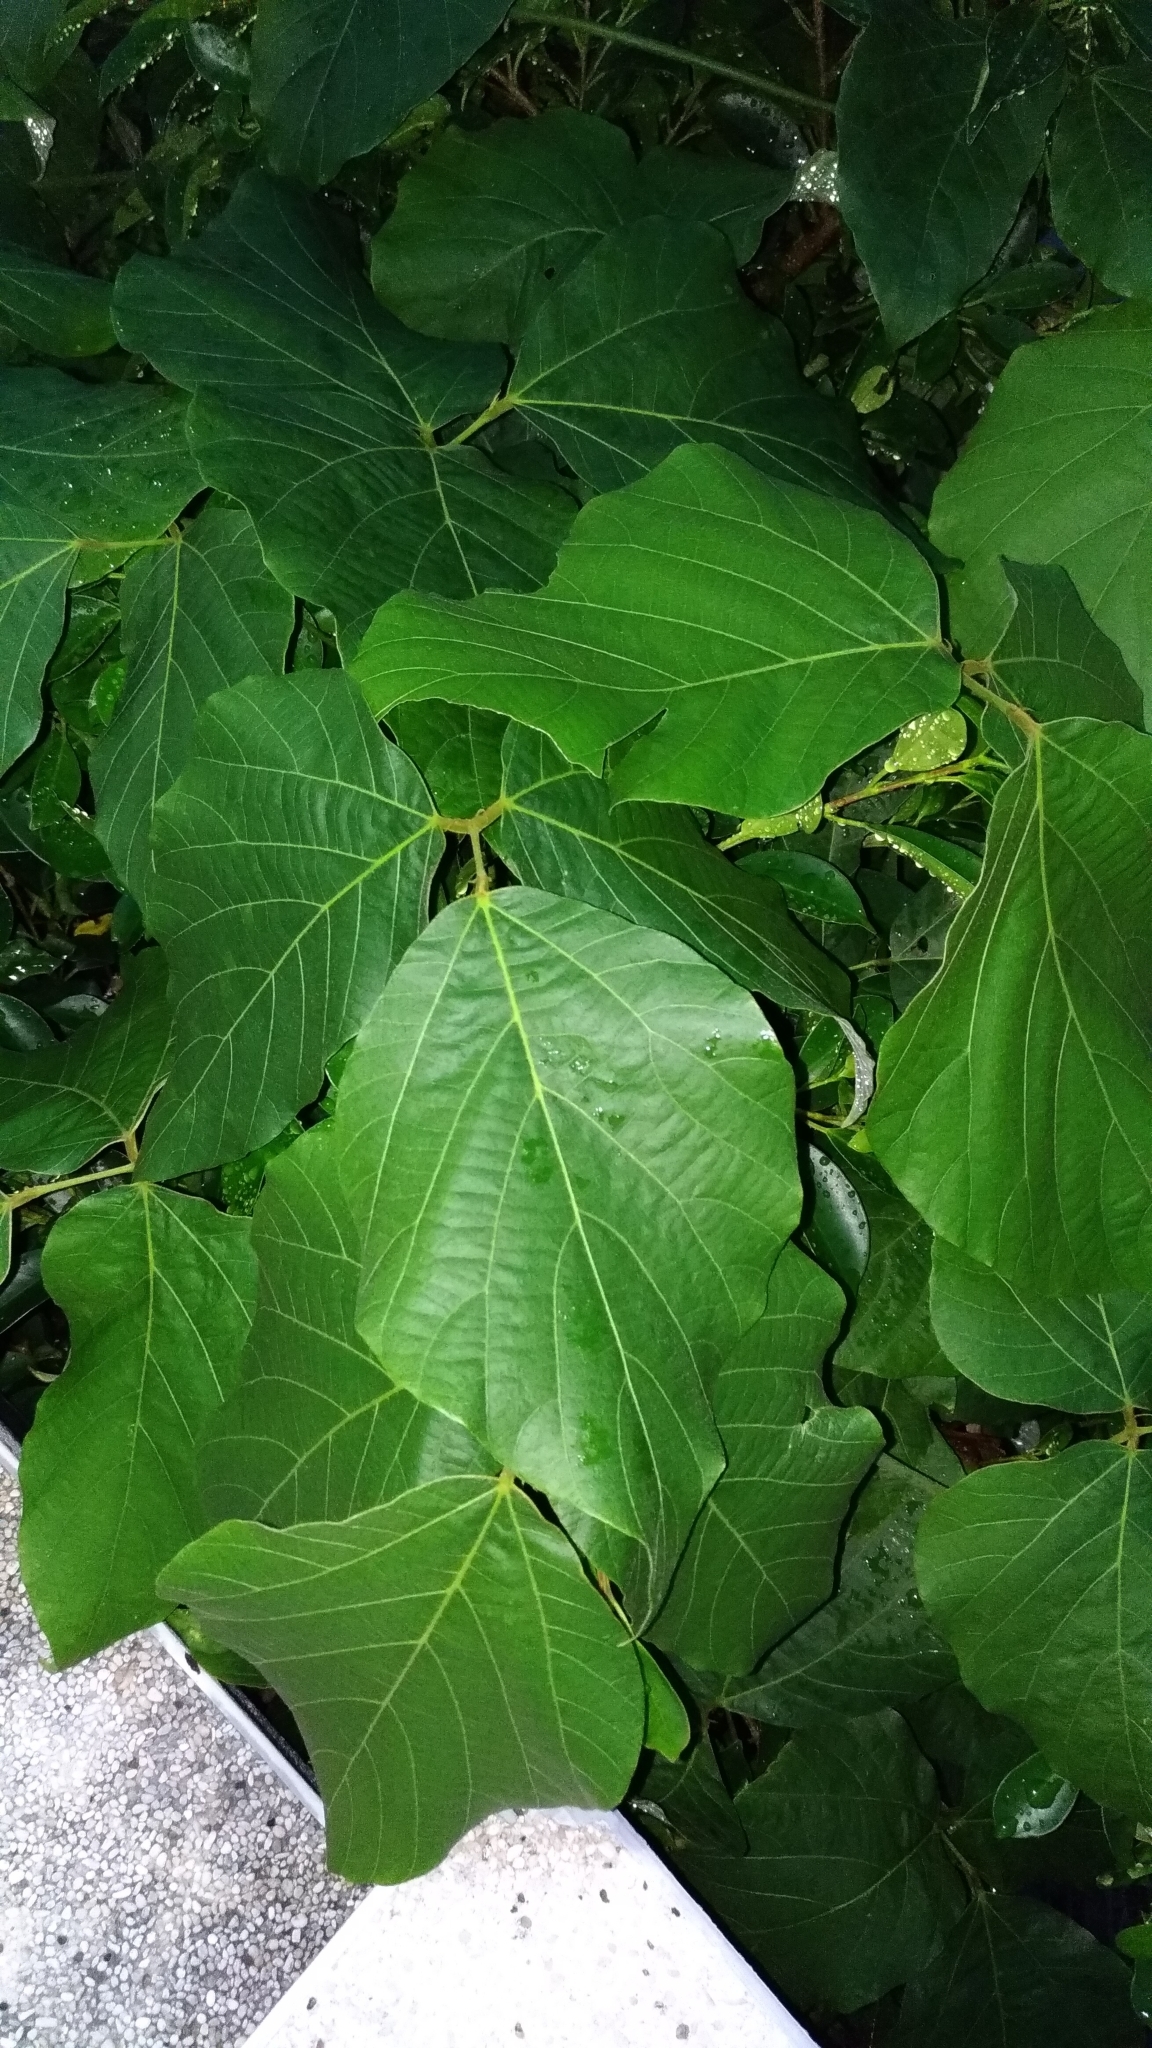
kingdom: Plantae
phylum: Tracheophyta
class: Magnoliopsida
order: Fabales
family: Fabaceae
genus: Pueraria
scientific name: Pueraria montana
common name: Kudzu
